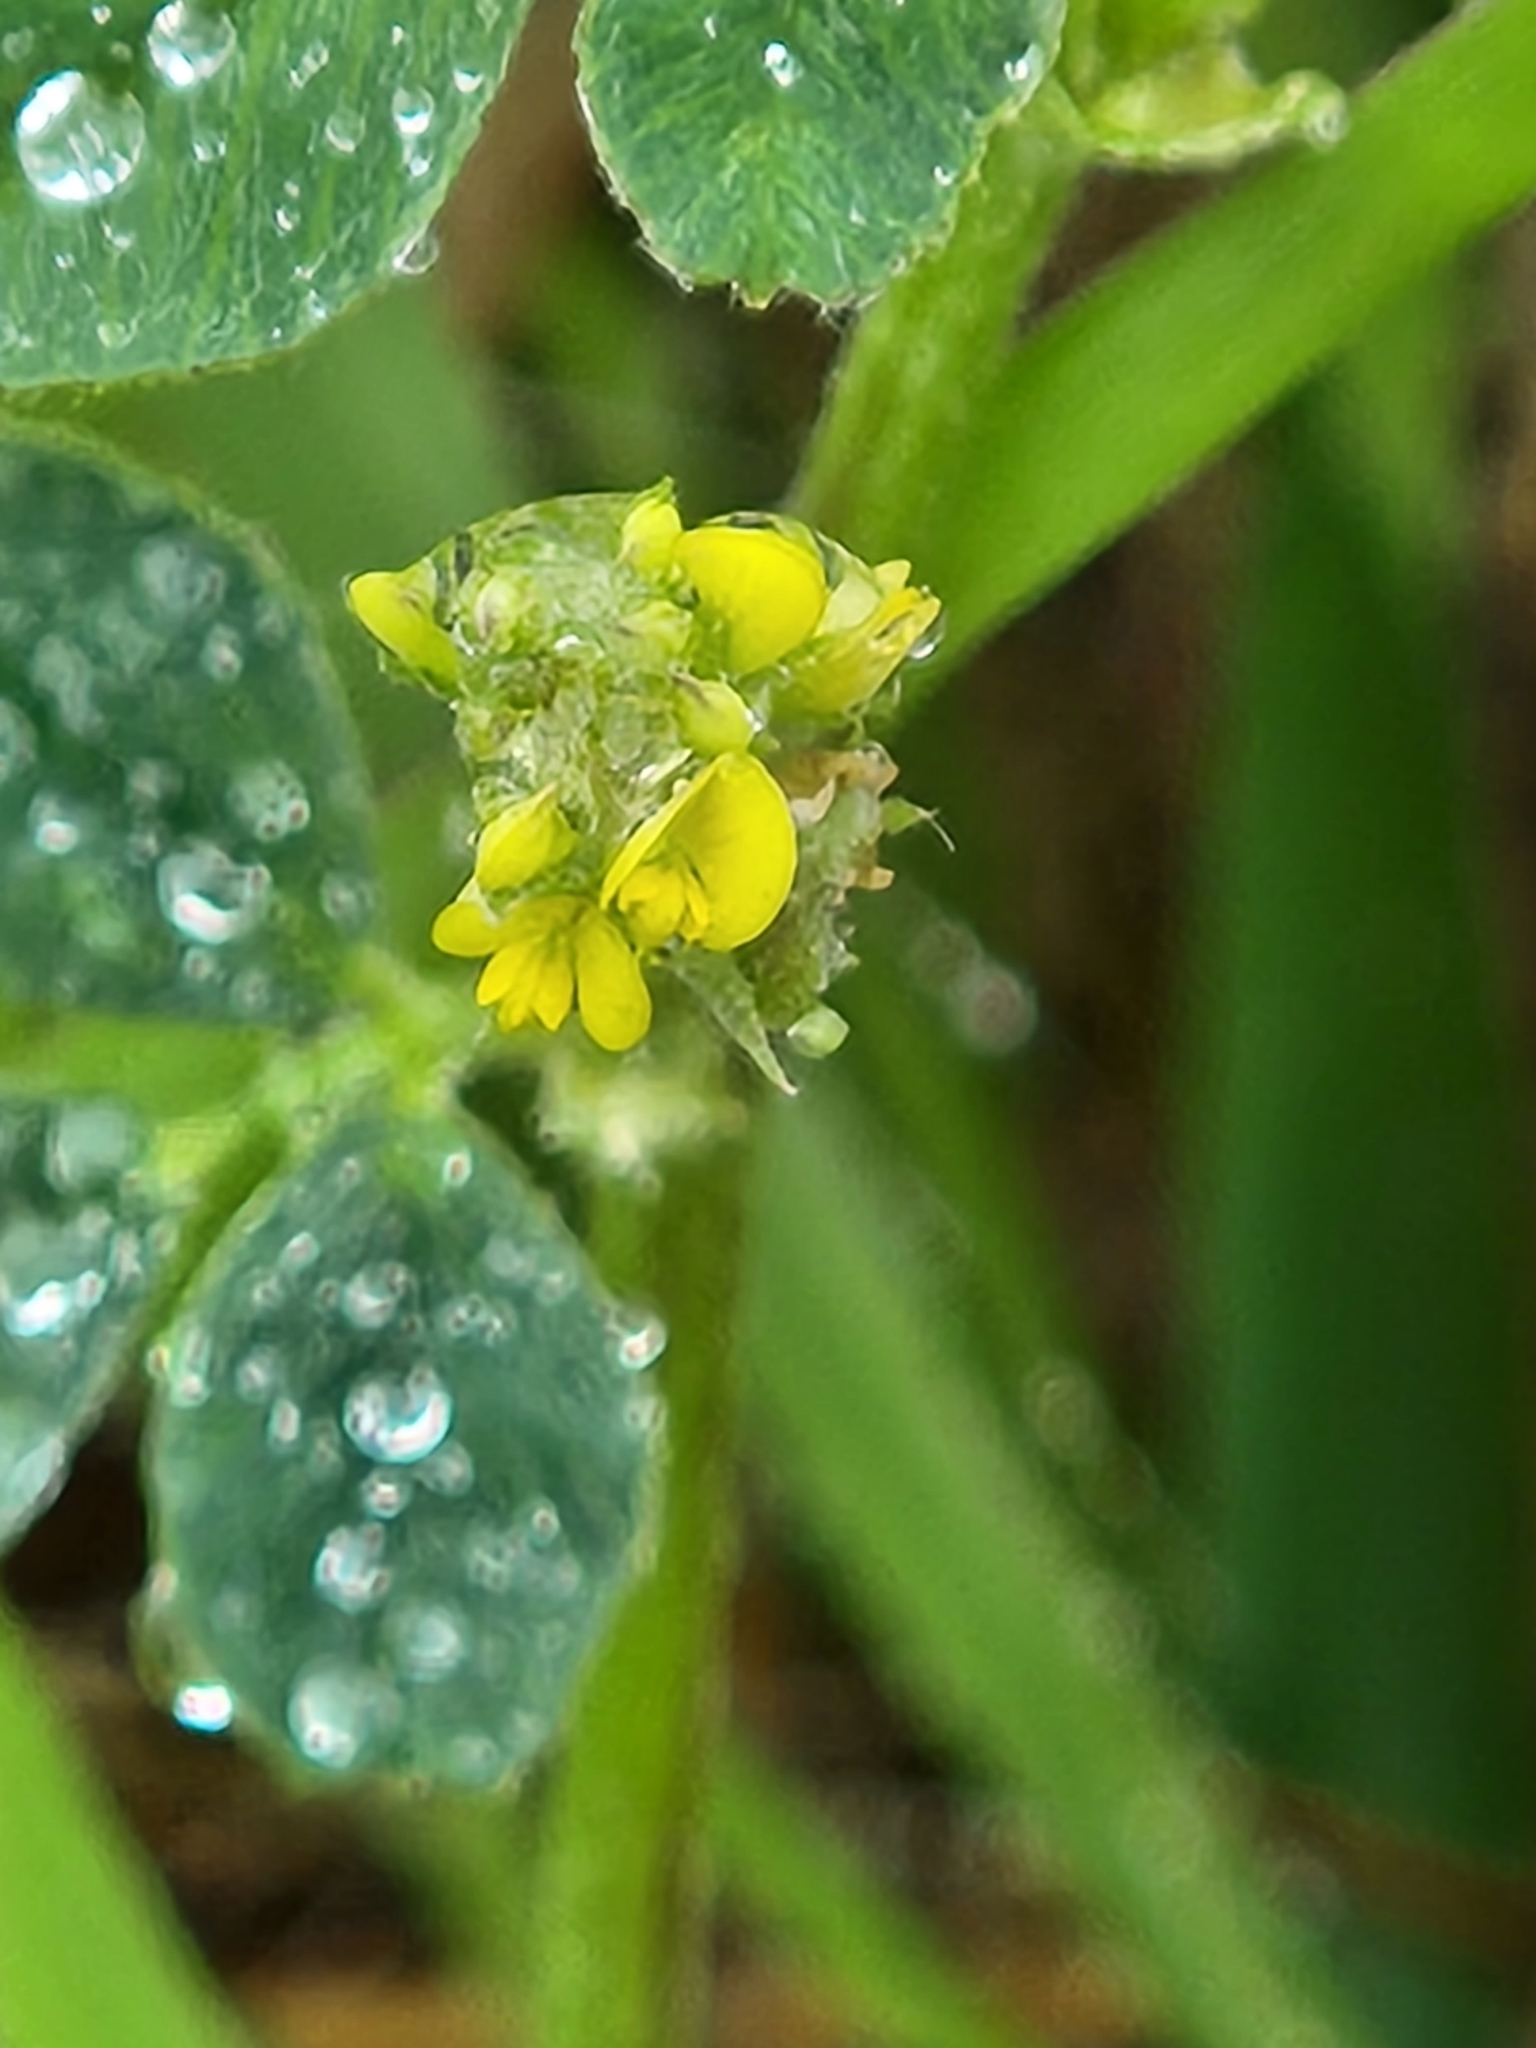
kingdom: Plantae
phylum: Tracheophyta
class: Magnoliopsida
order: Fabales
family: Fabaceae
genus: Medicago
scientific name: Medicago lupulina
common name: Black medick
